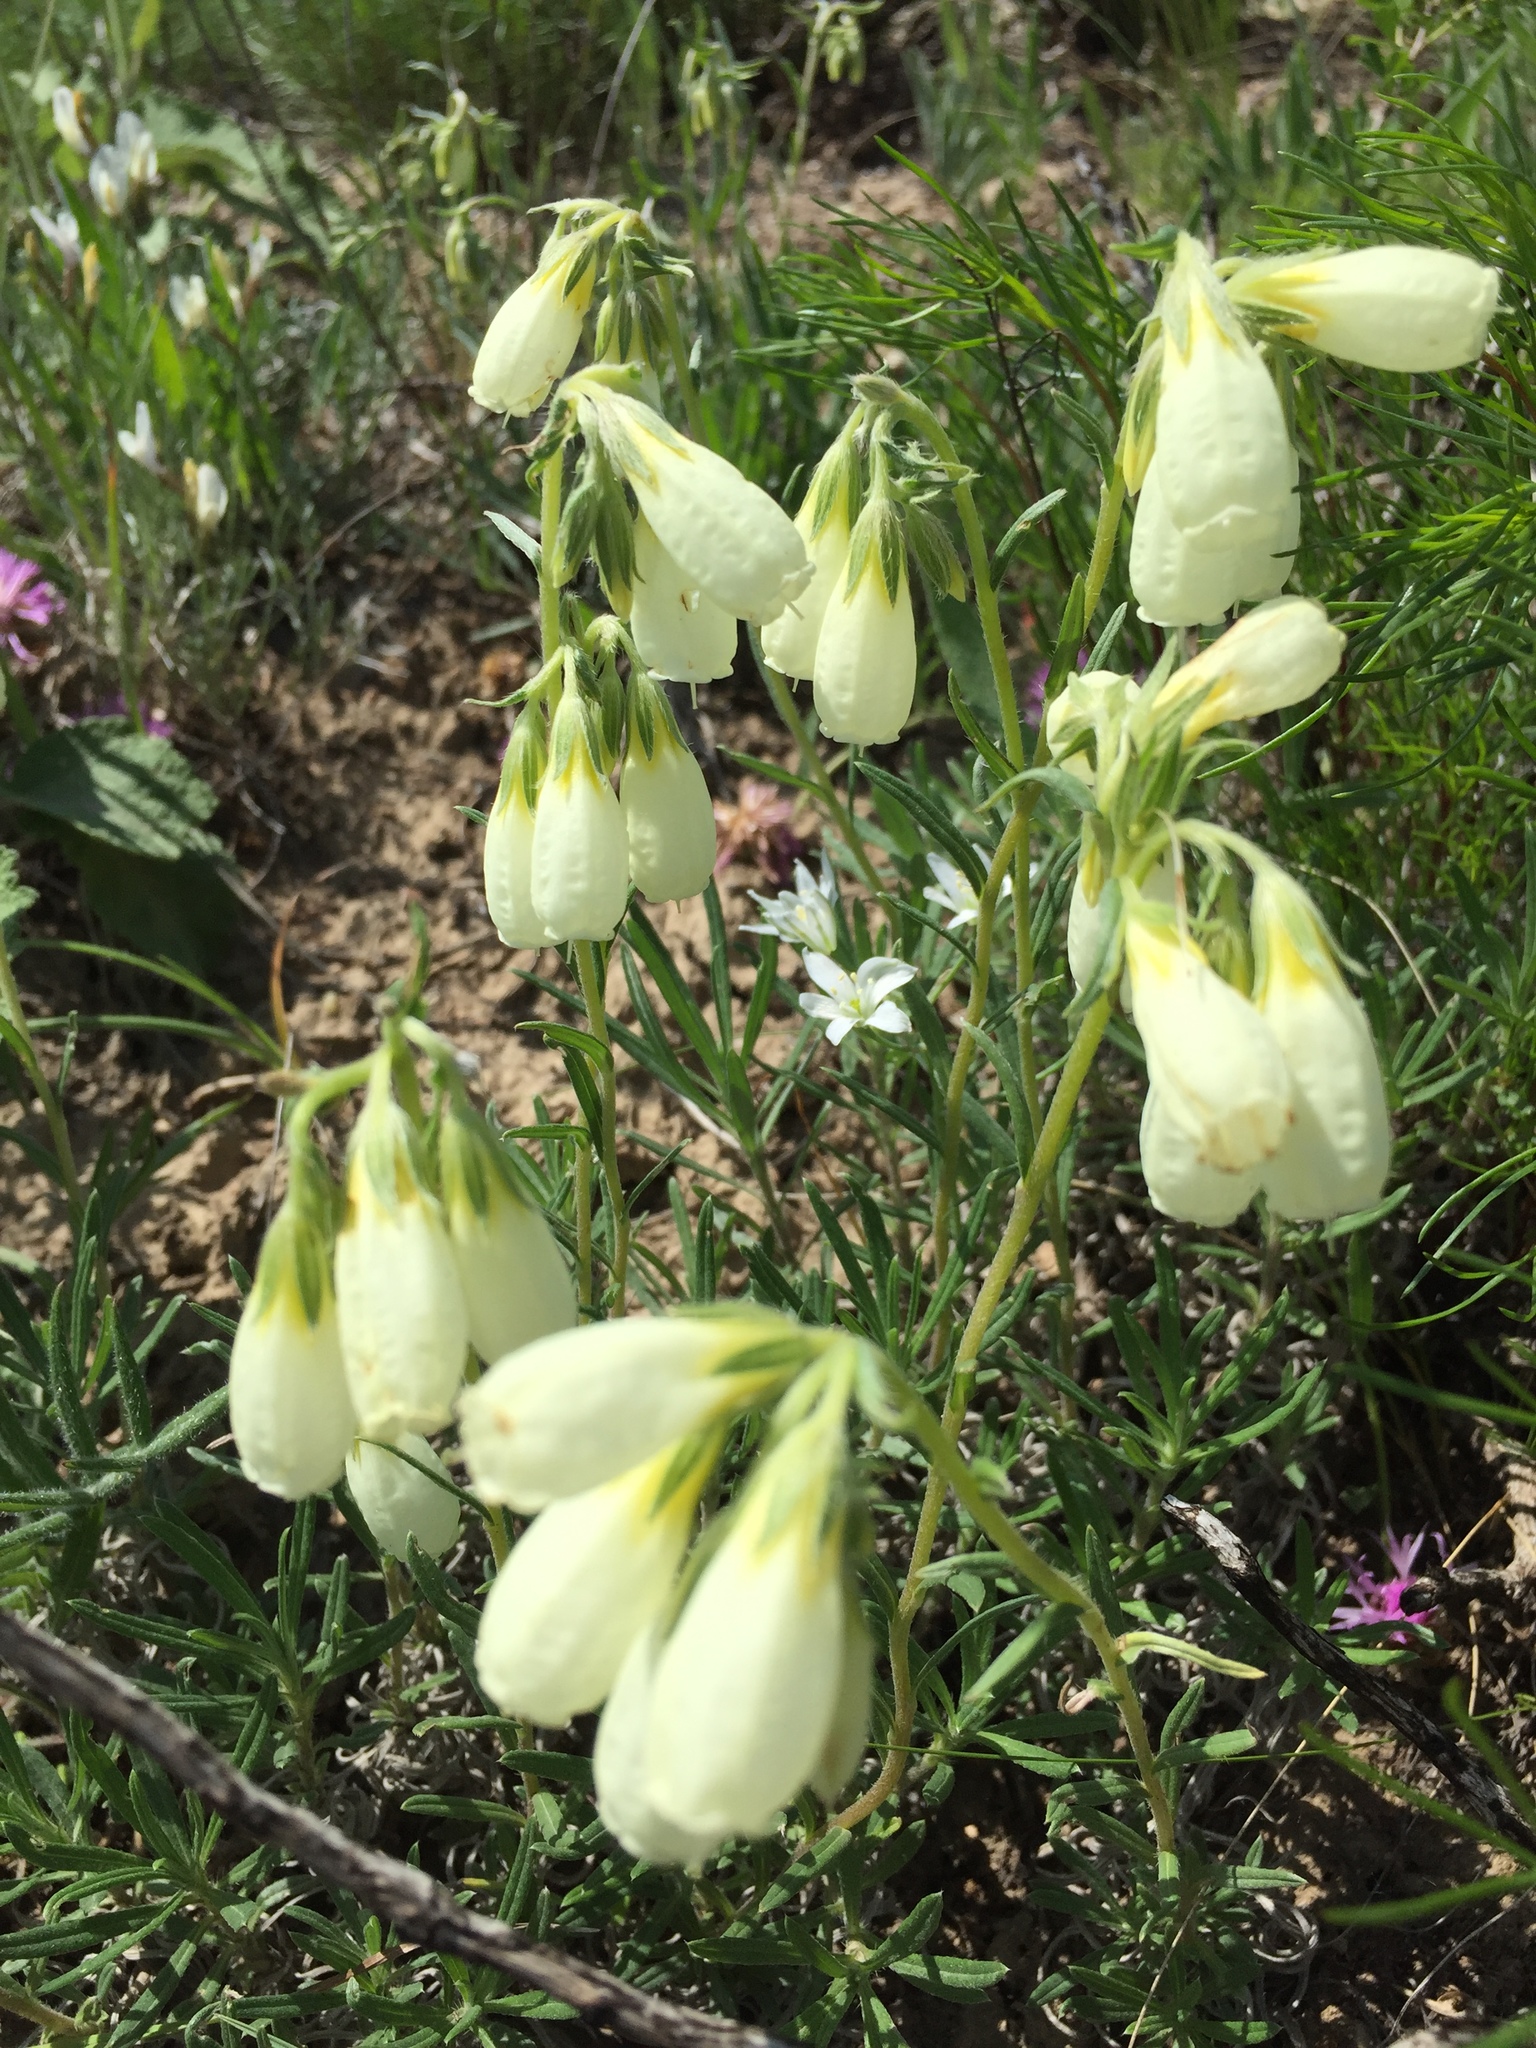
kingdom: Plantae
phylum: Tracheophyta
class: Magnoliopsida
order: Boraginales
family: Boraginaceae
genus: Onosma
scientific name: Onosma simplicissima
